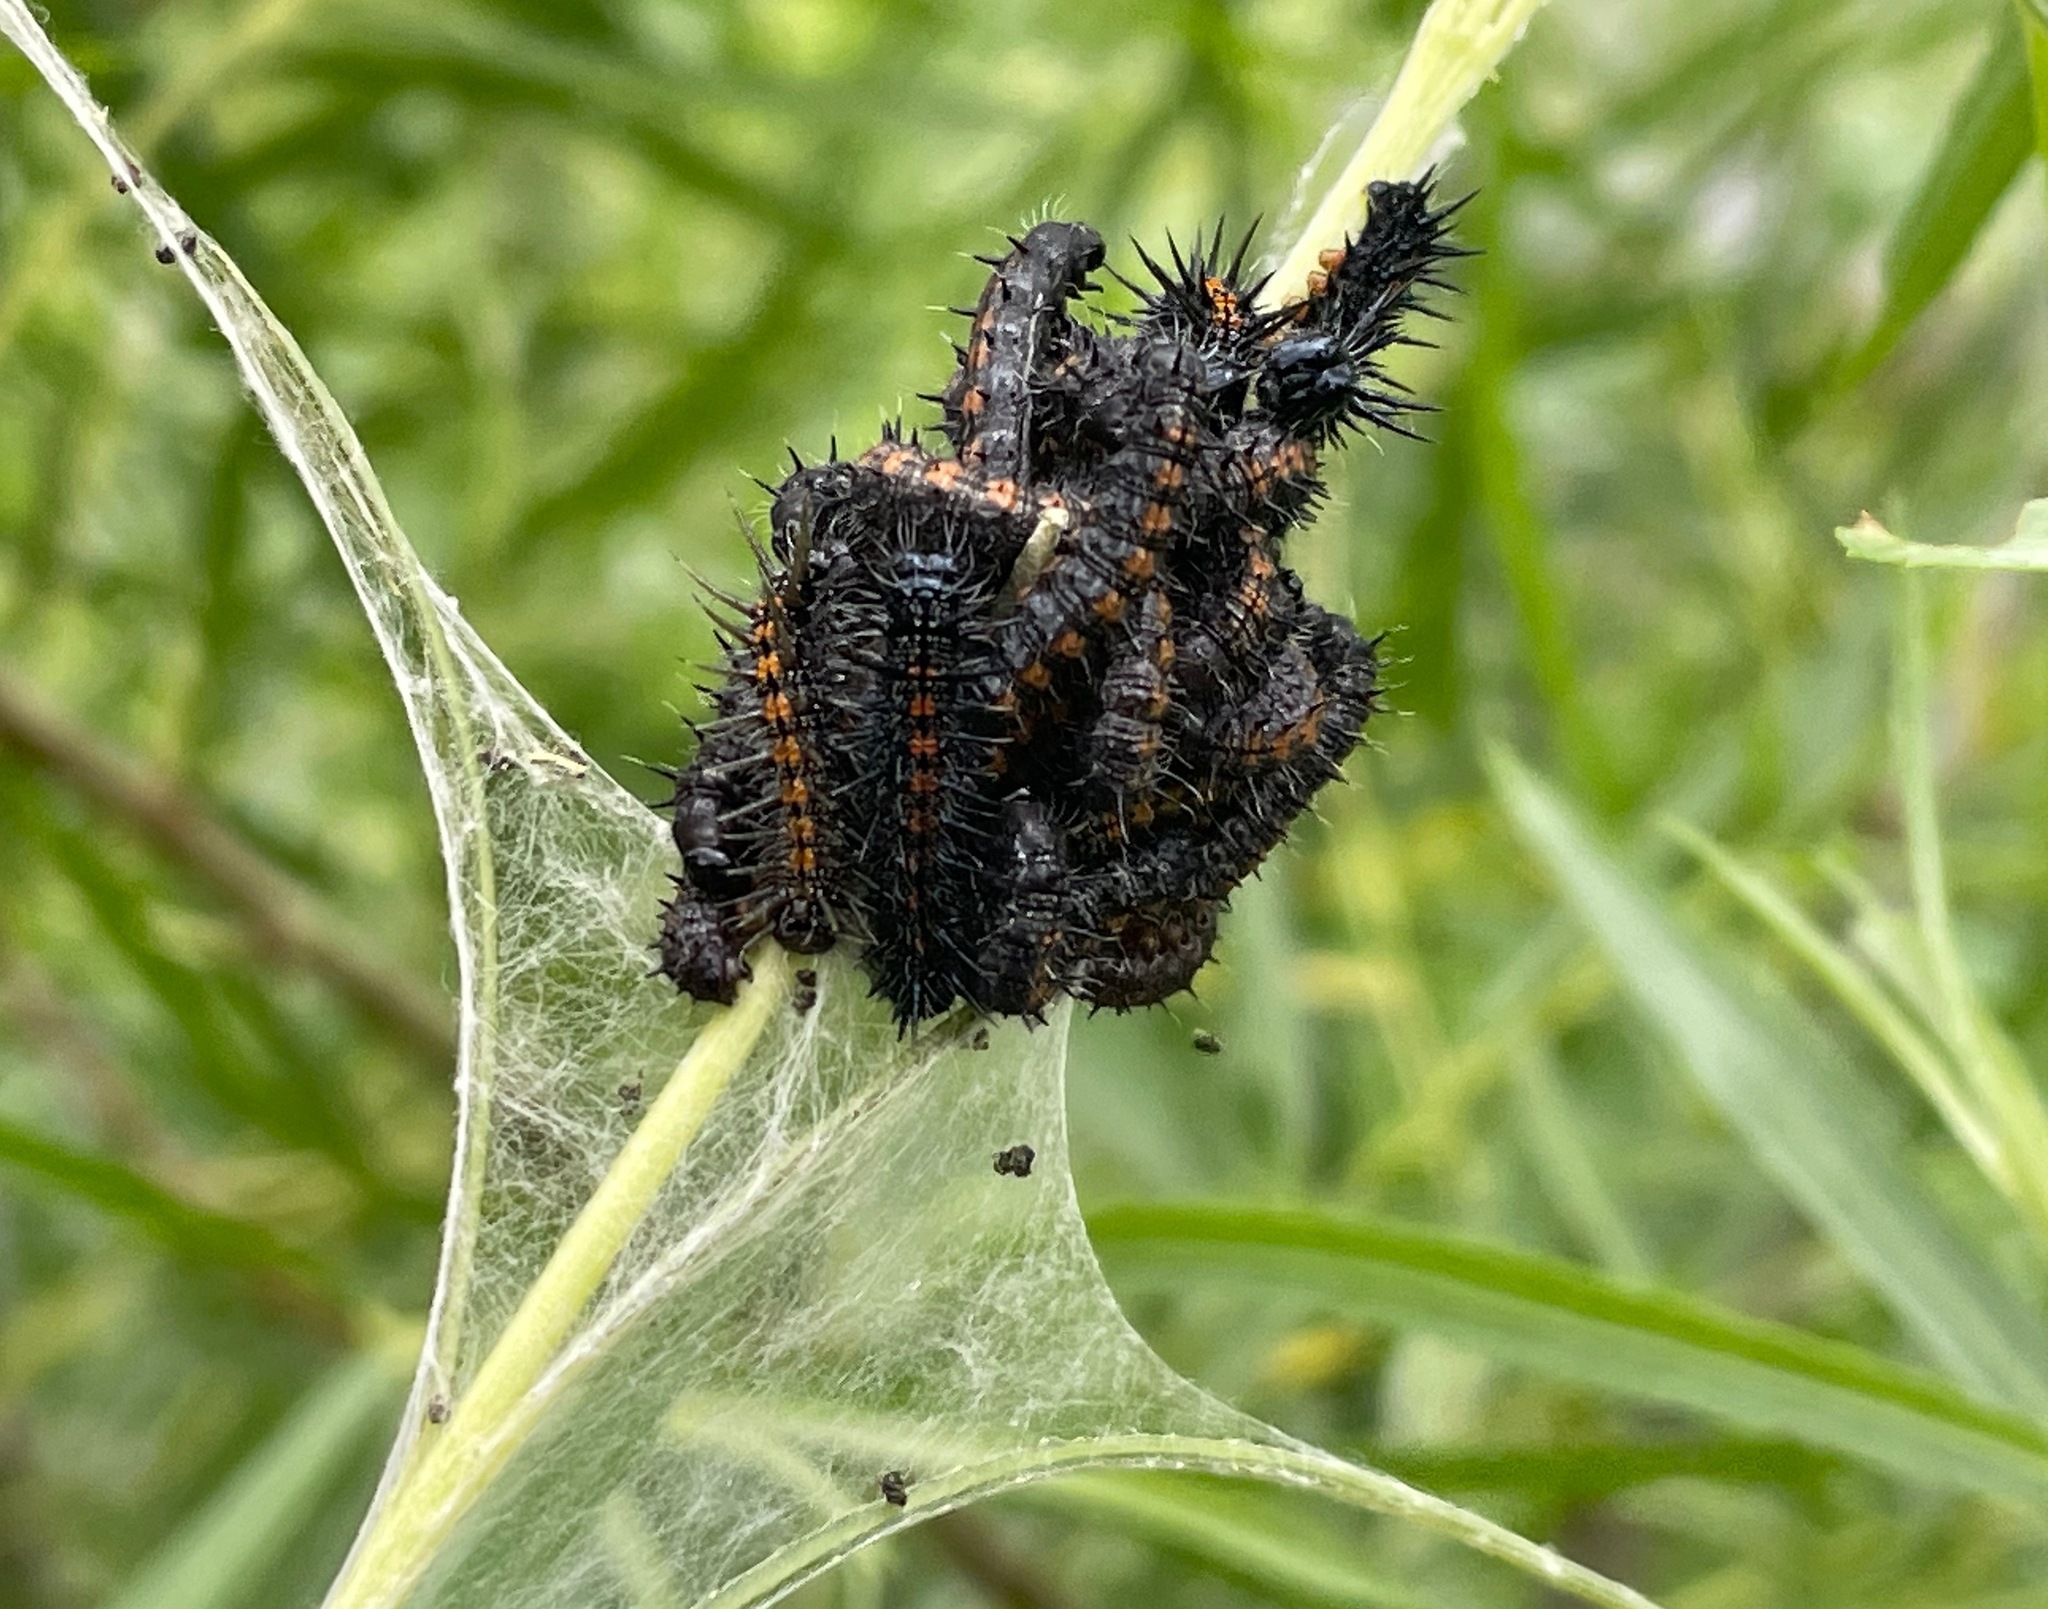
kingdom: Animalia
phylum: Arthropoda
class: Insecta
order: Lepidoptera
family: Nymphalidae
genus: Nymphalis
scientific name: Nymphalis antiopa
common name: Camberwell beauty
